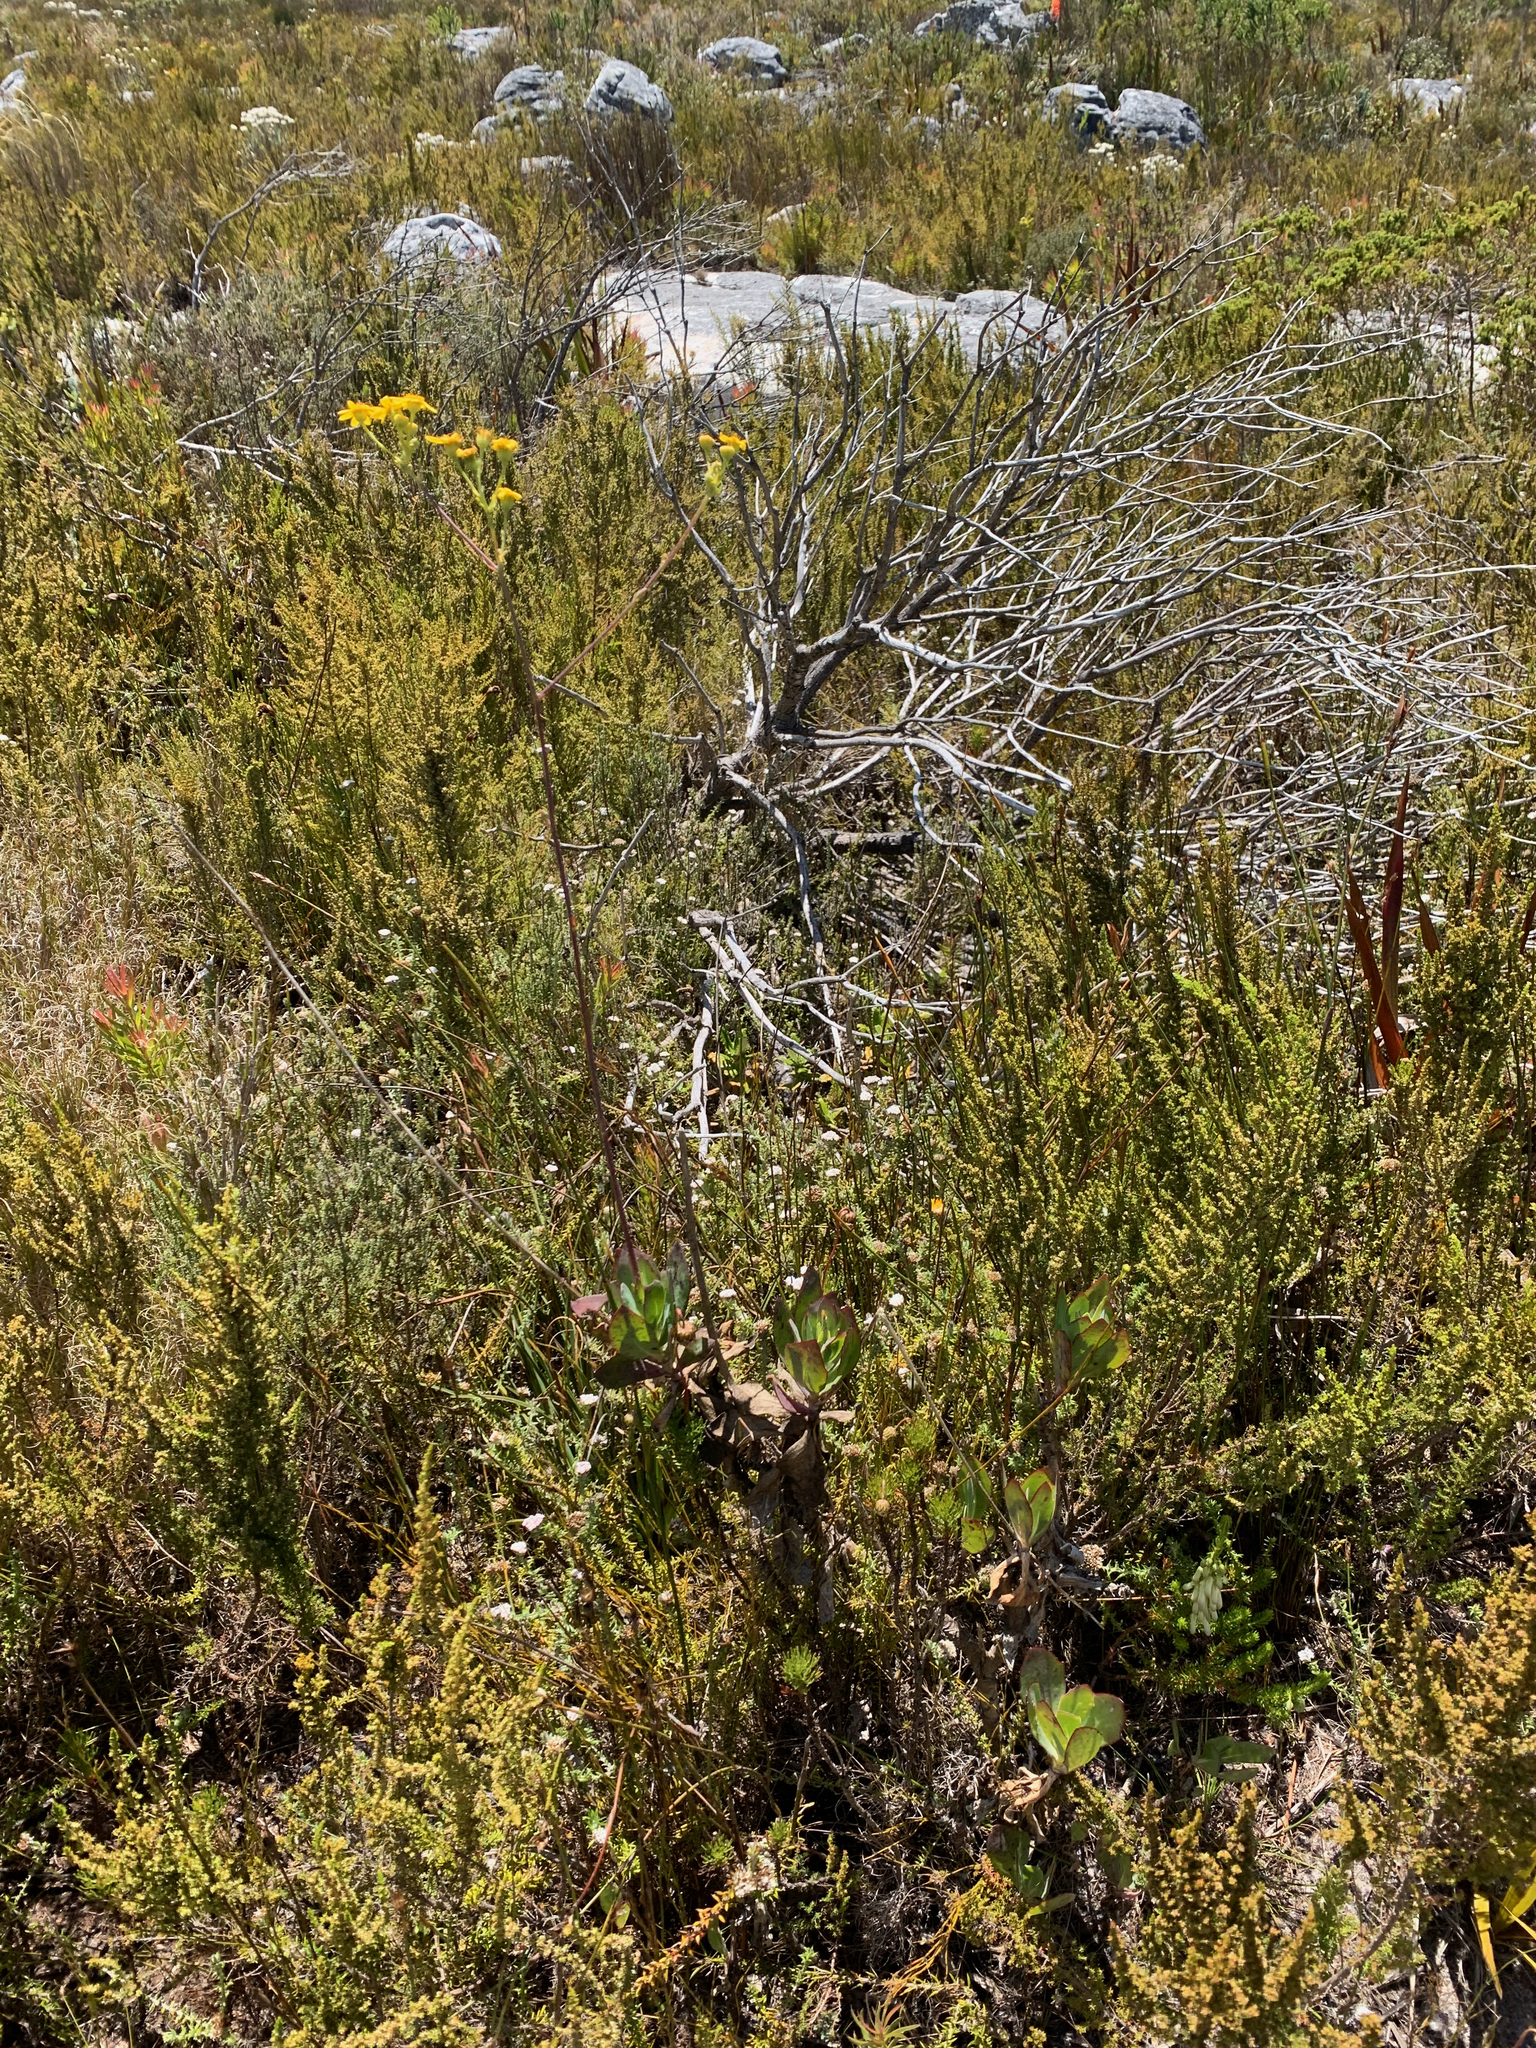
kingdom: Plantae
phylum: Tracheophyta
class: Magnoliopsida
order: Asterales
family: Asteraceae
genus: Othonna
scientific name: Othonna quinquedentata
